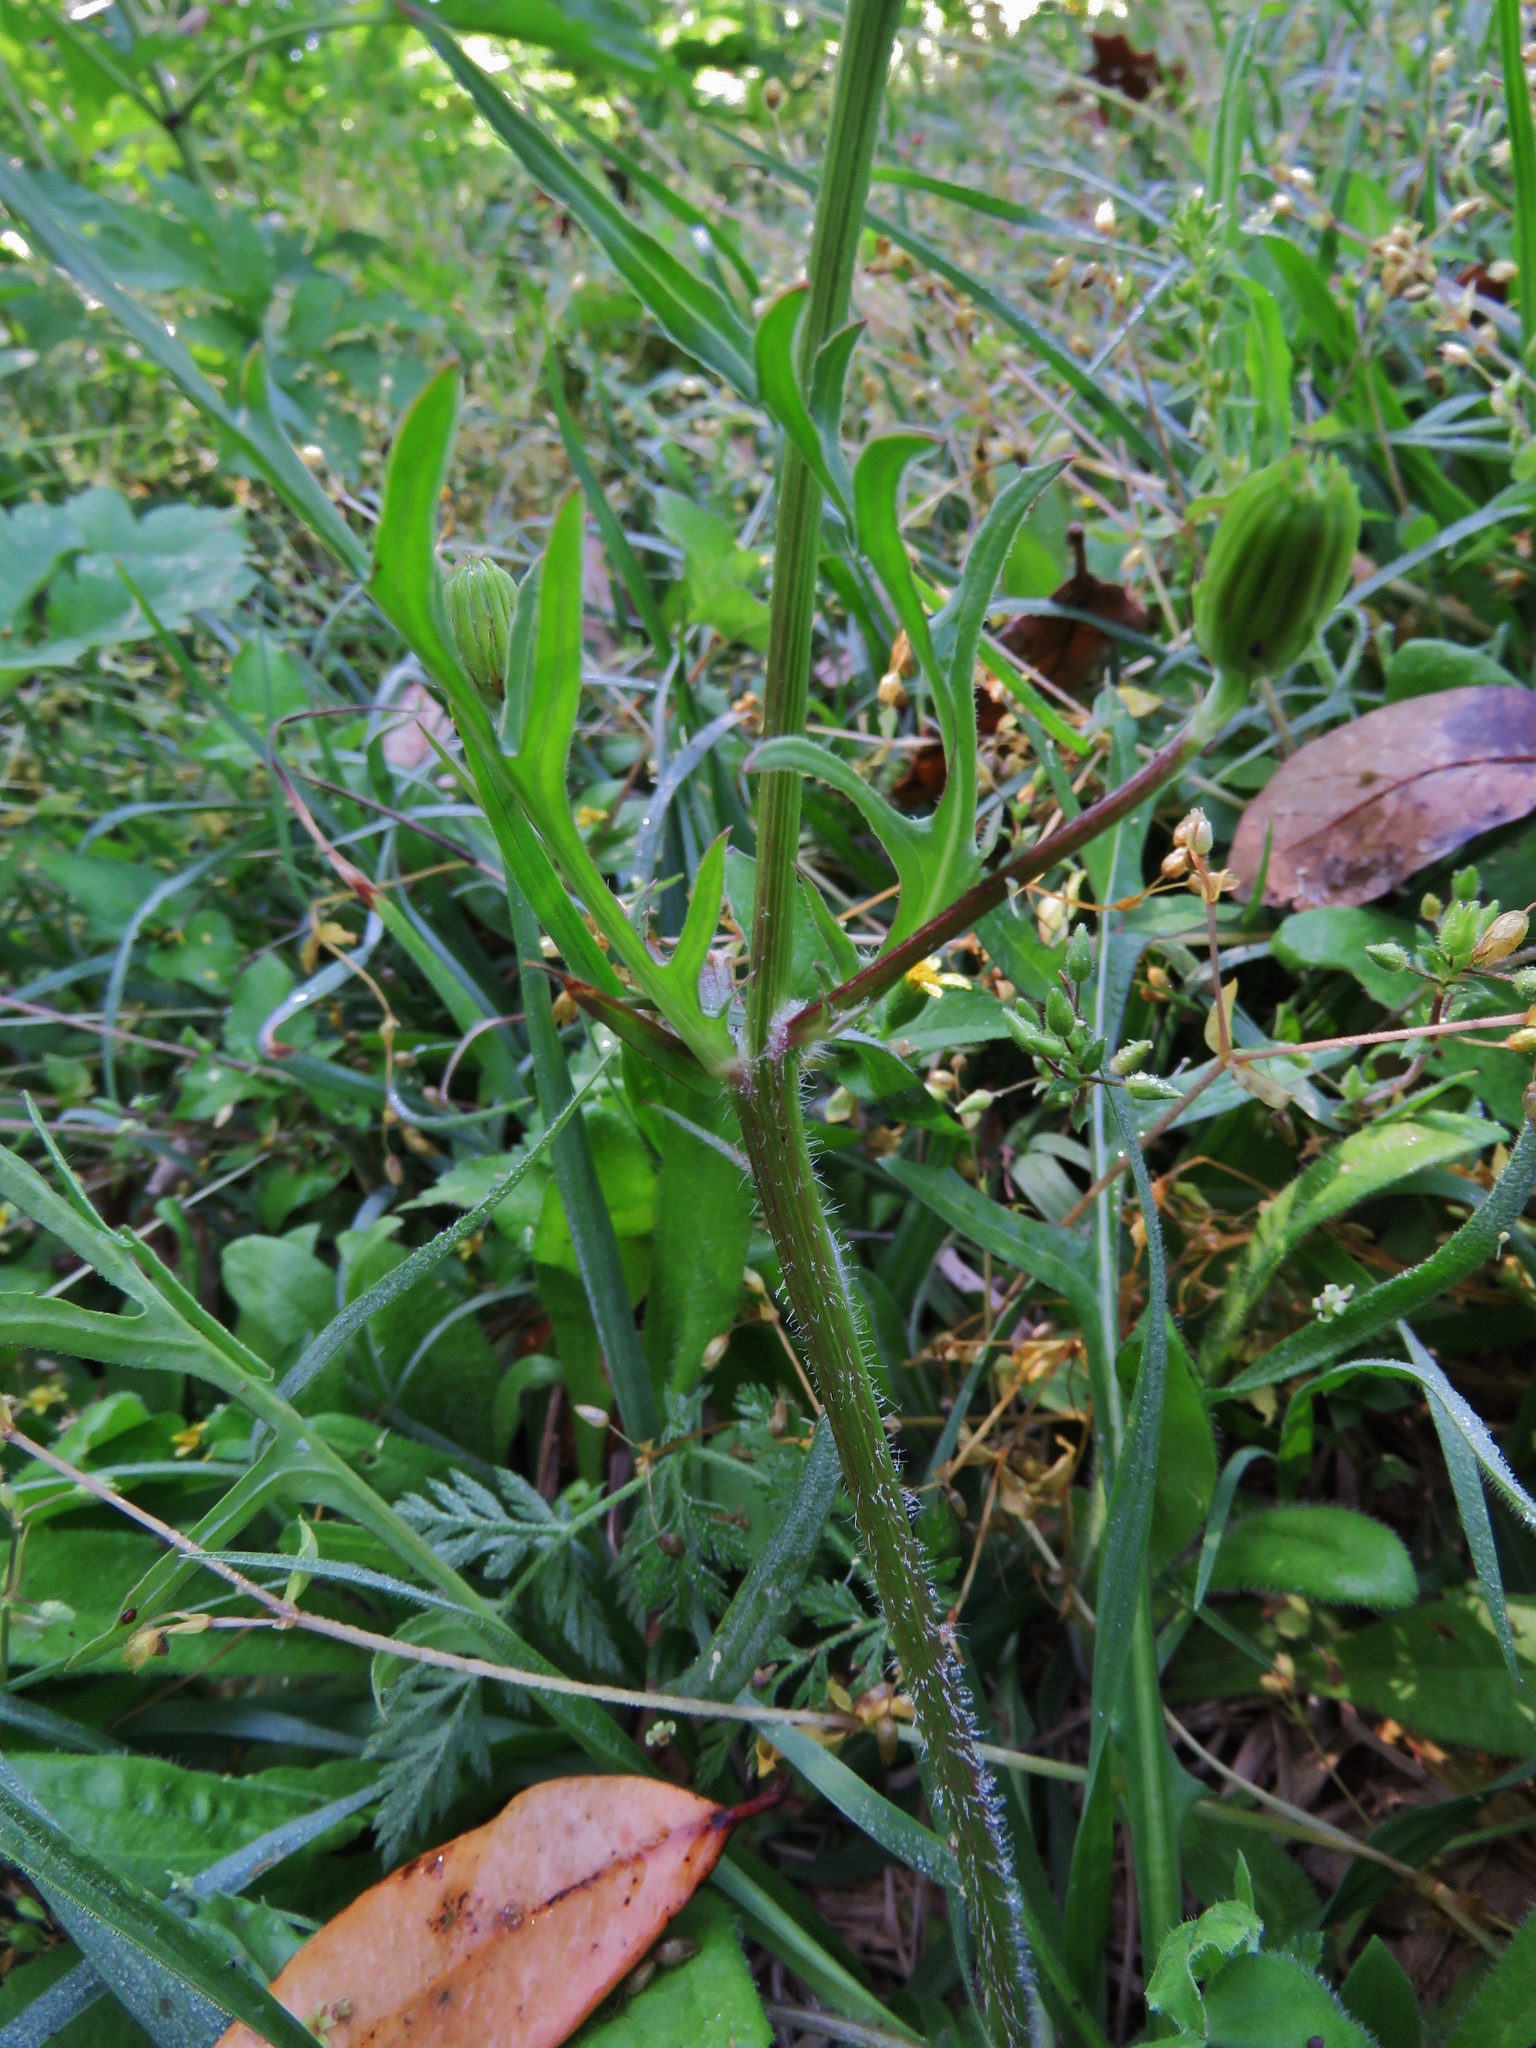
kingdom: Plantae
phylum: Tracheophyta
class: Magnoliopsida
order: Asterales
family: Asteraceae
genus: Pyrrhopappus
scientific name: Pyrrhopappus pauciflorus
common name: Texas false dandelion
